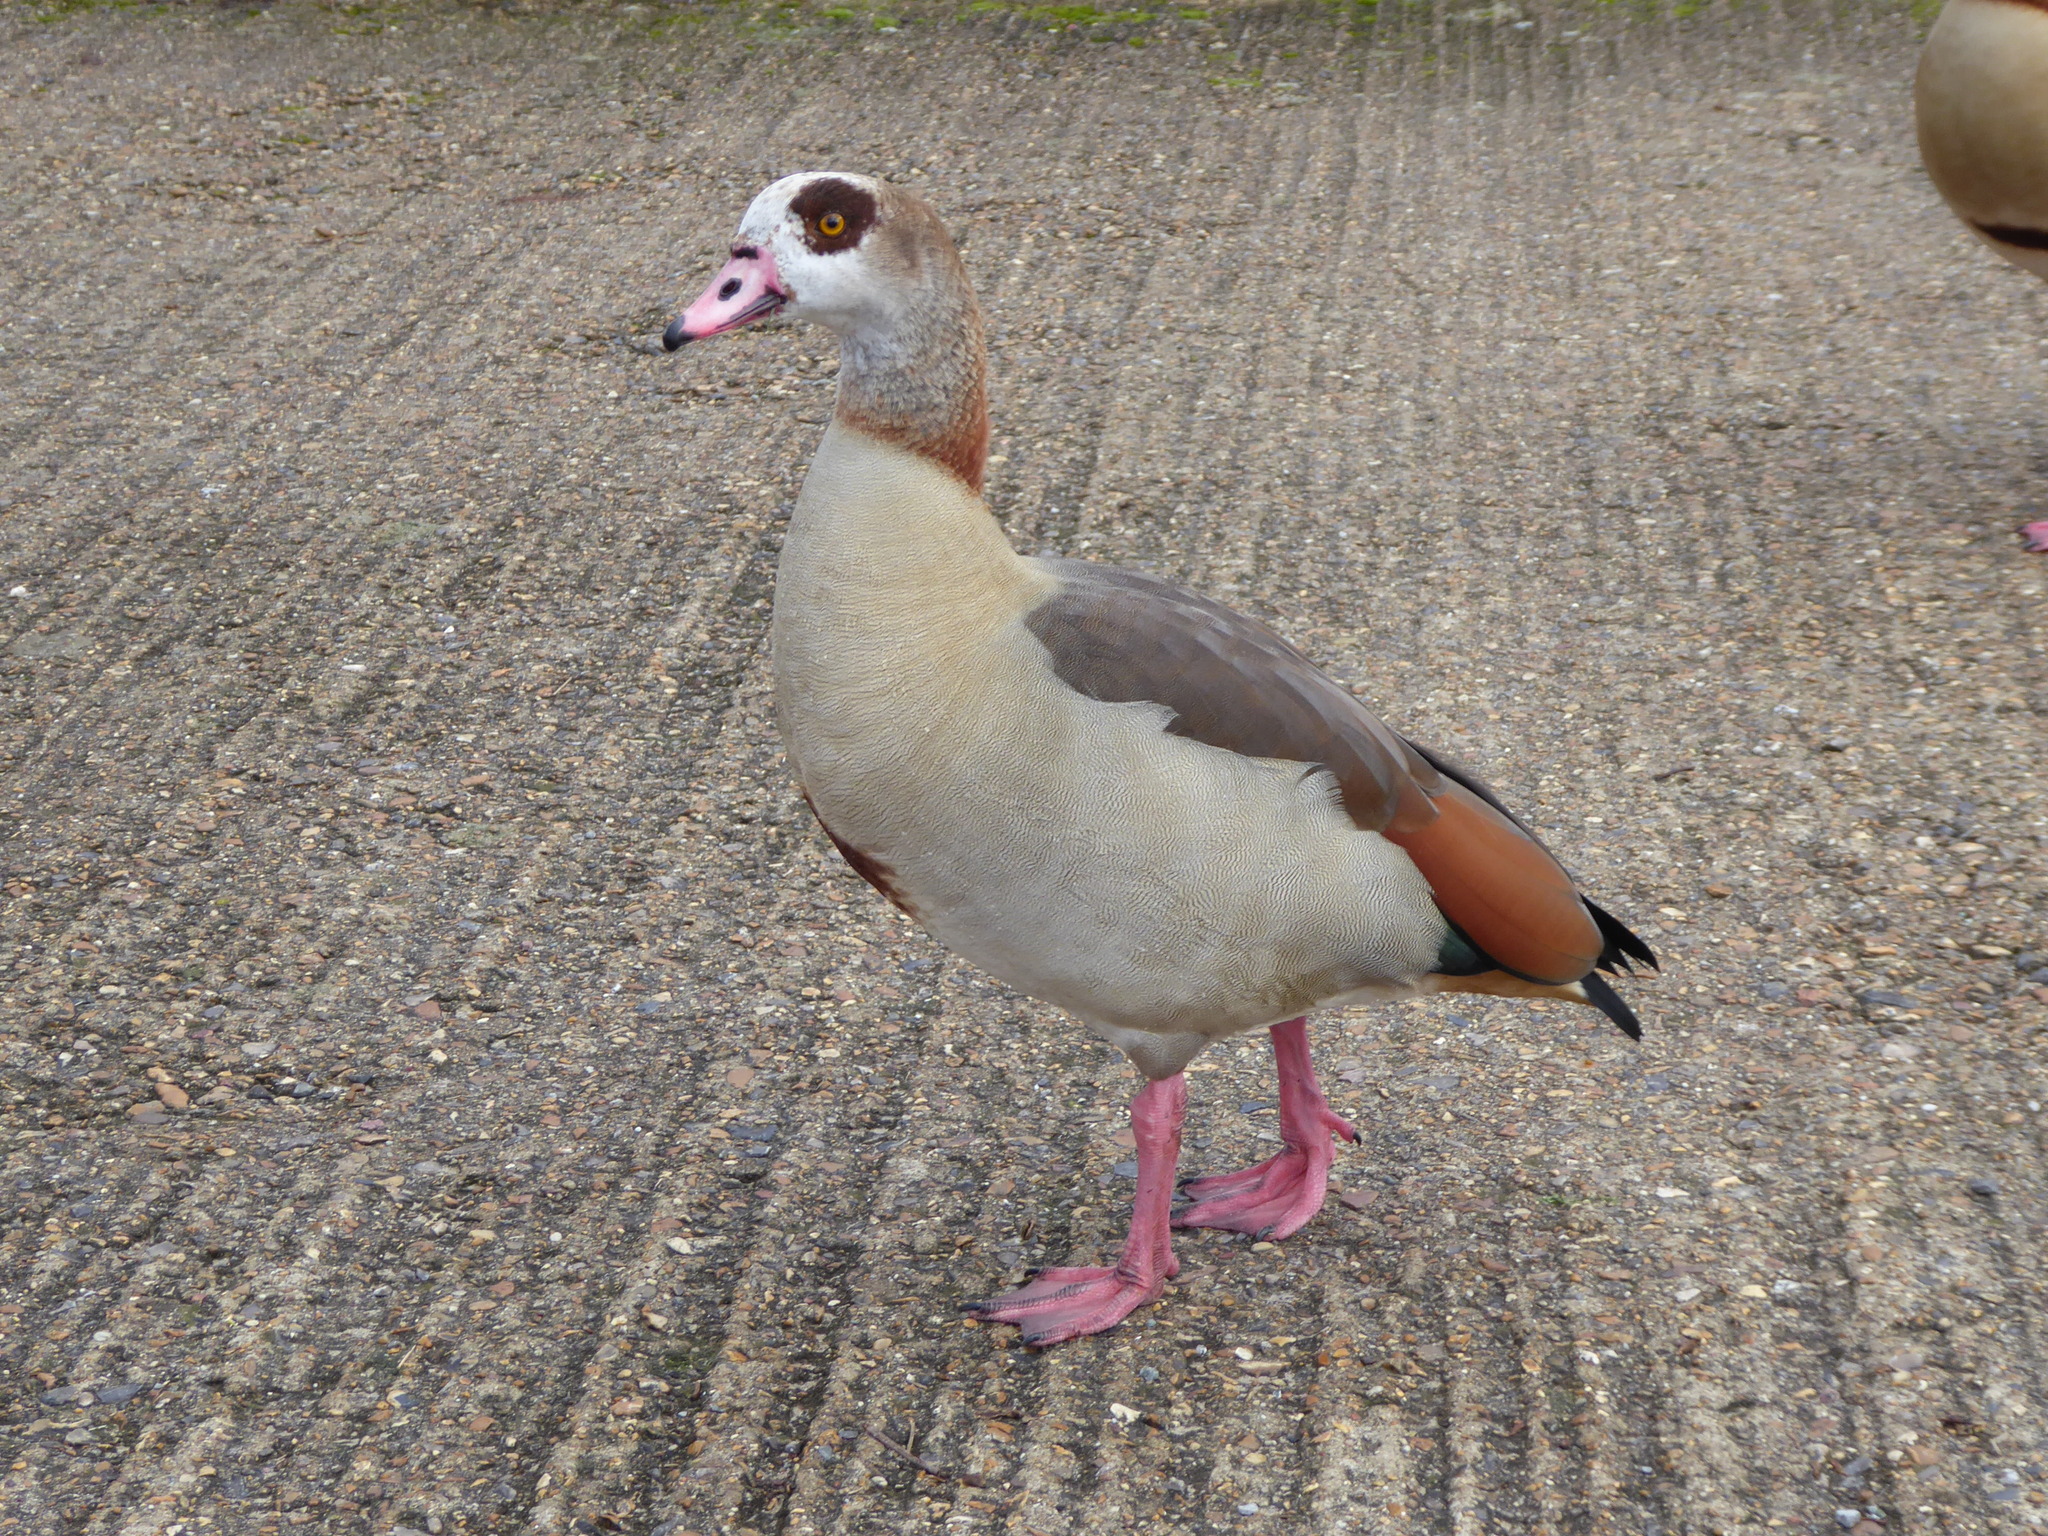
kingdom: Animalia
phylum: Chordata
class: Aves
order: Anseriformes
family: Anatidae
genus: Alopochen
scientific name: Alopochen aegyptiaca
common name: Egyptian goose
